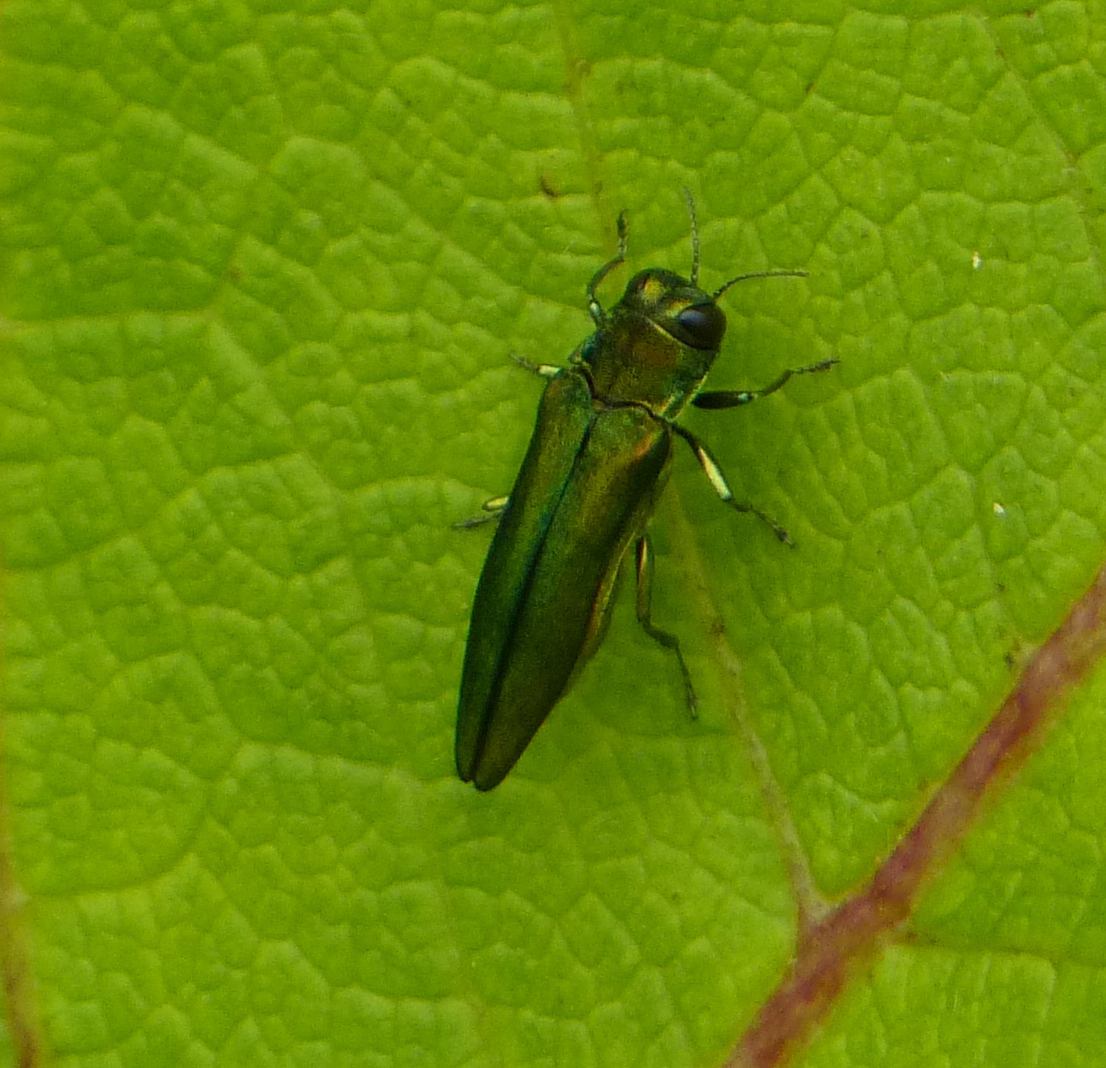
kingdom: Animalia
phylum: Arthropoda
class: Insecta
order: Coleoptera
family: Buprestidae
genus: Agrilus
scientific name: Agrilus planipennis
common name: Emerald ash borer
